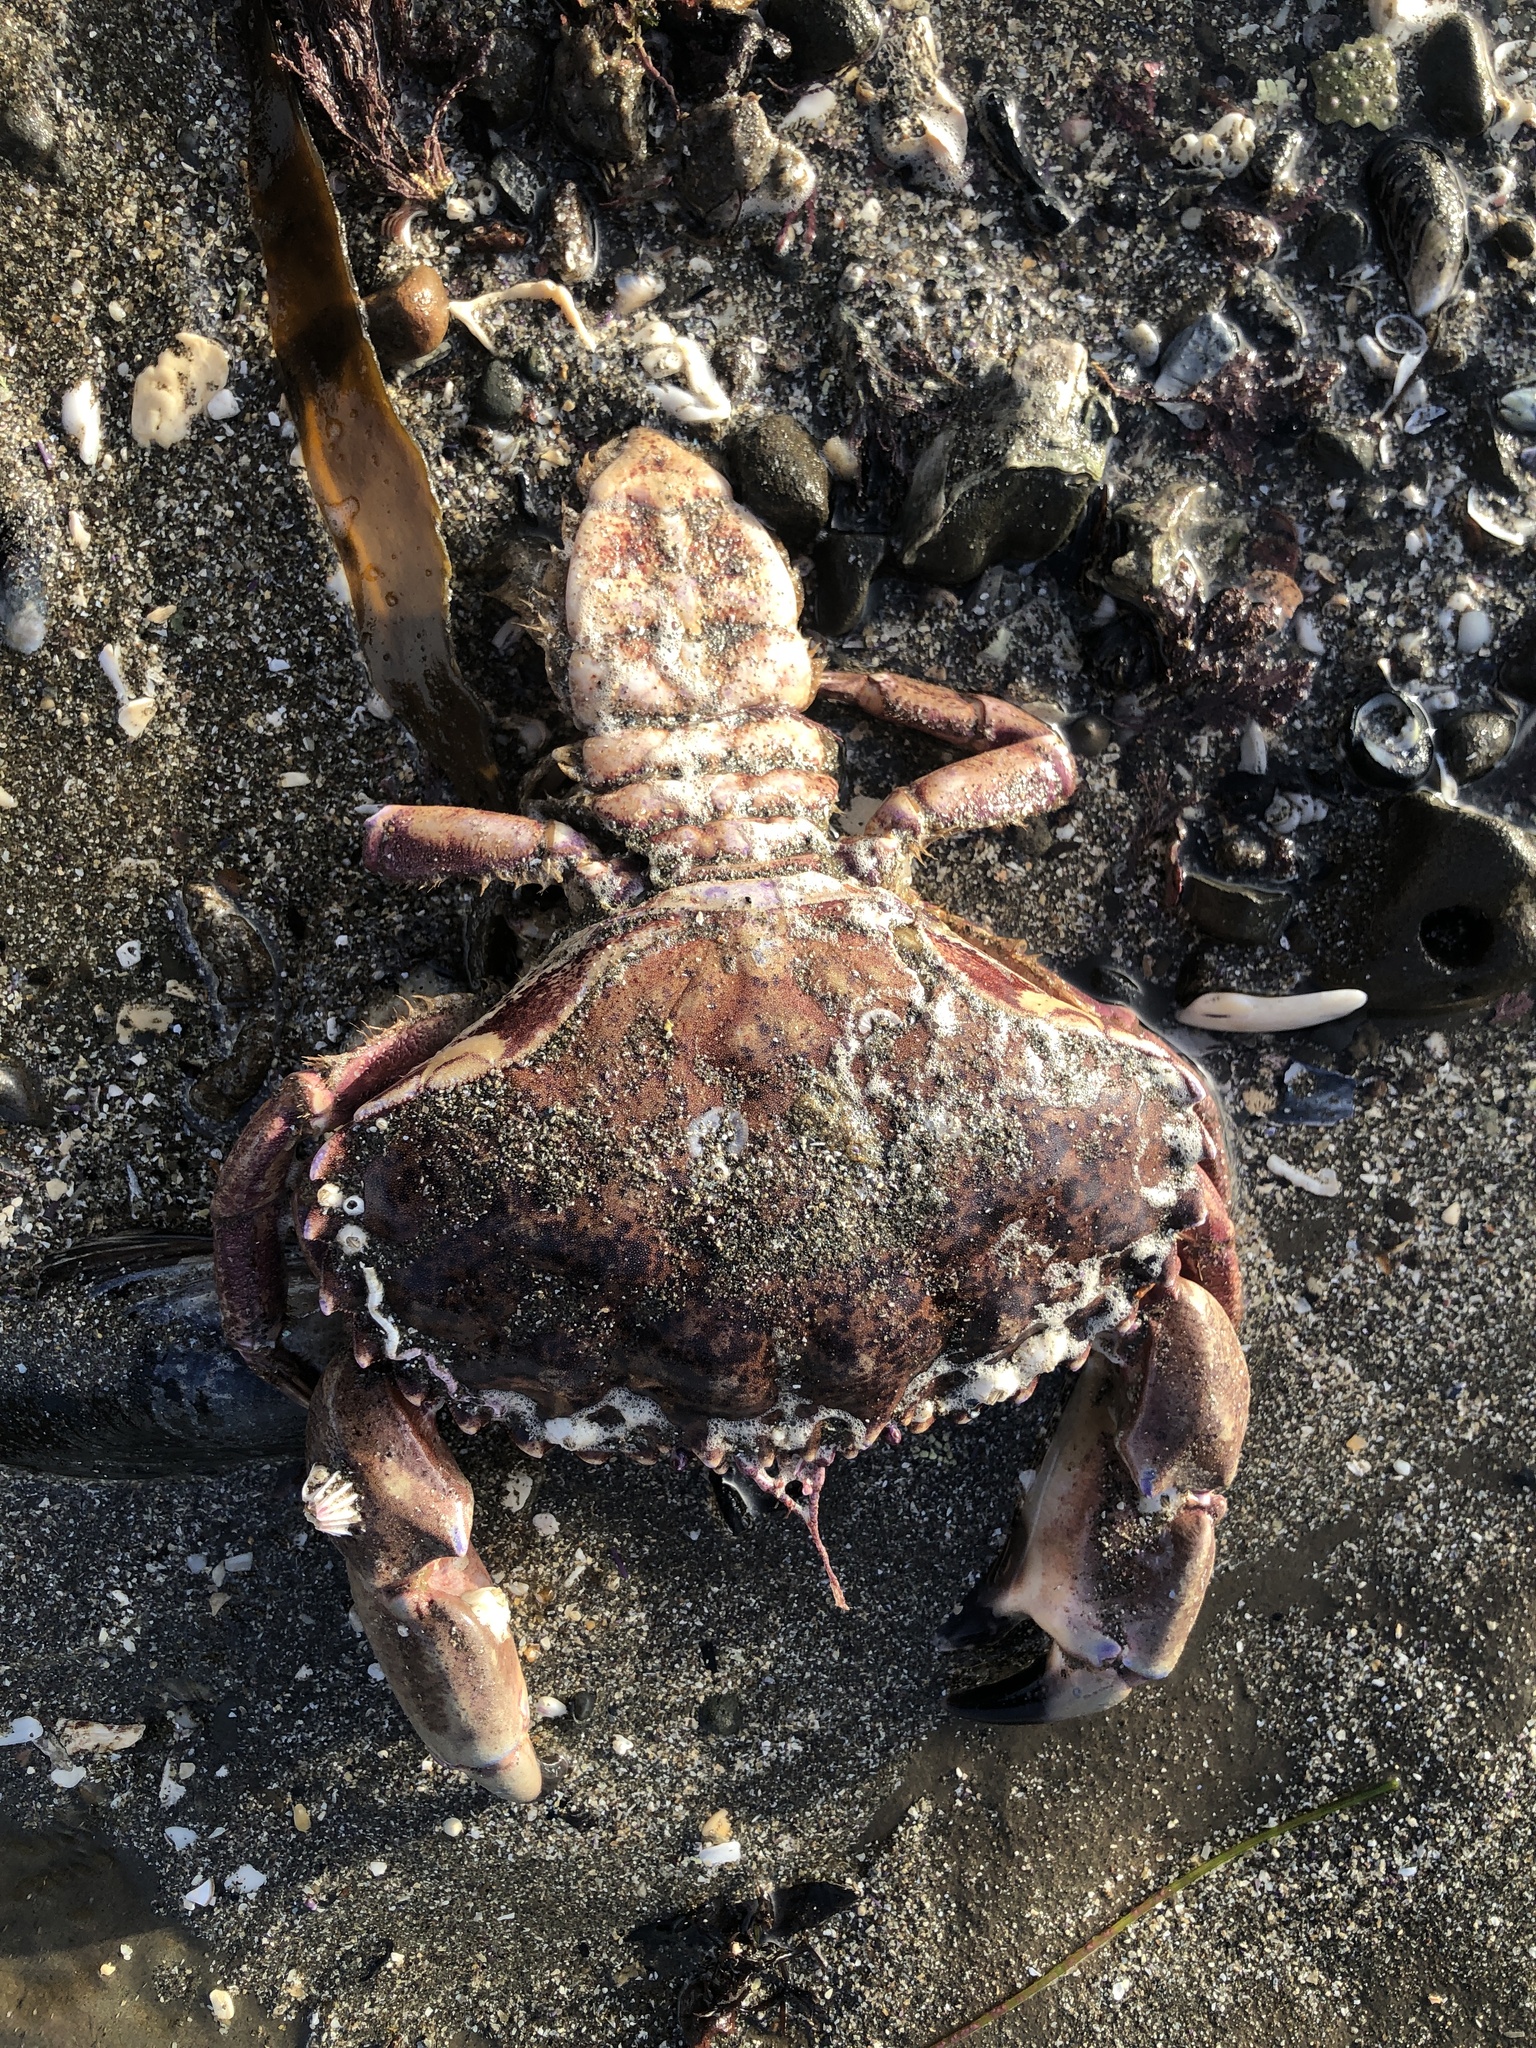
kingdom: Animalia
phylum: Arthropoda
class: Malacostraca
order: Decapoda
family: Cancridae
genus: Romaleon
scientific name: Romaleon antennarium
